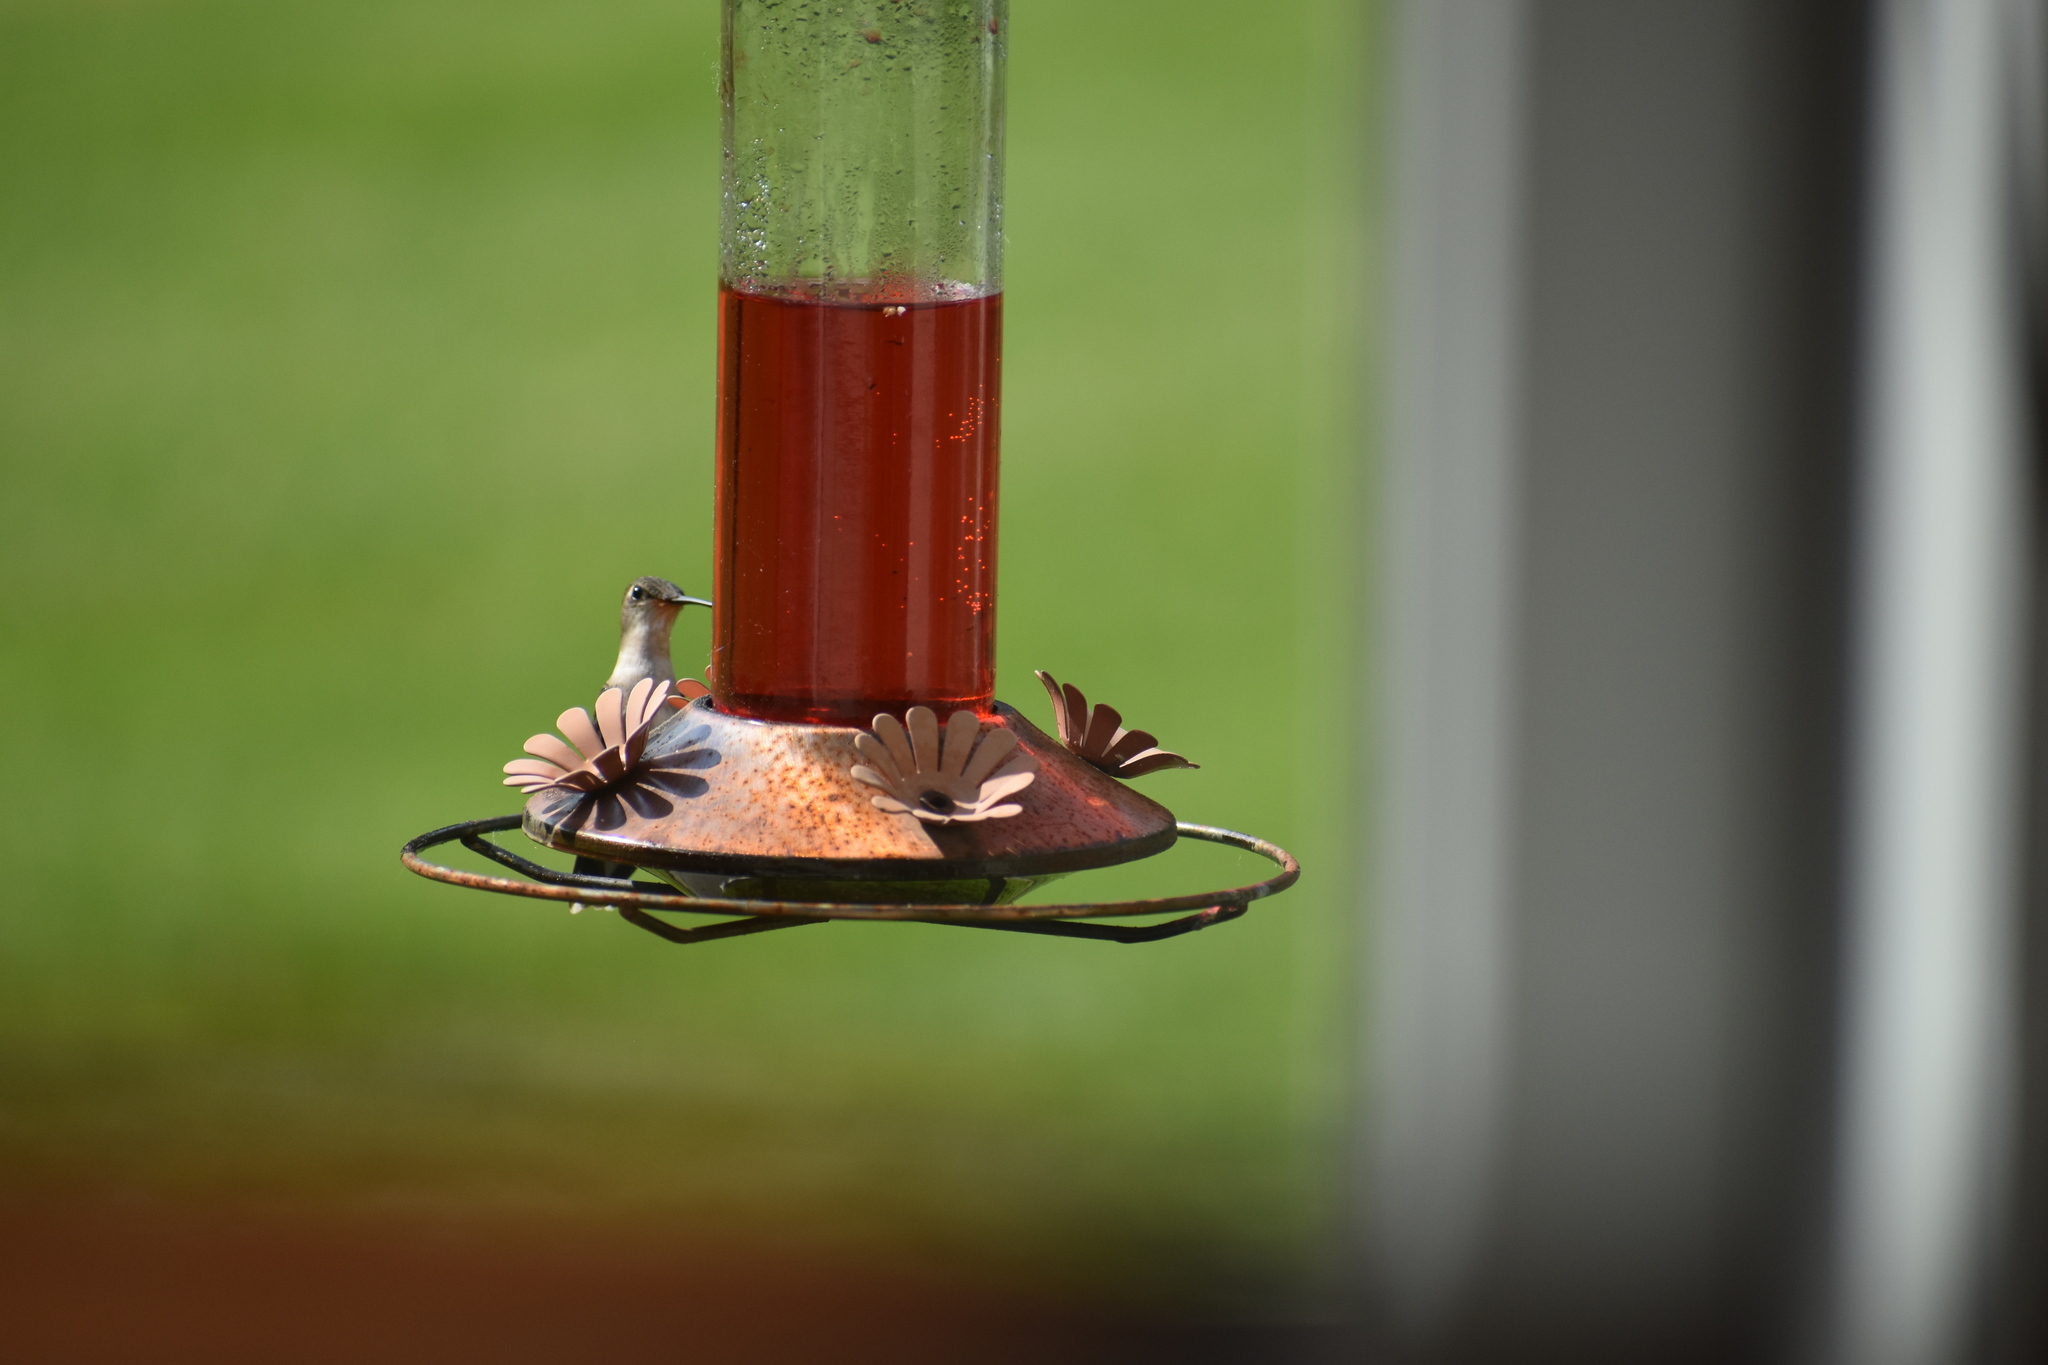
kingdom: Animalia
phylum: Chordata
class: Aves
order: Apodiformes
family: Trochilidae
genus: Archilochus
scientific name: Archilochus colubris
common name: Ruby-throated hummingbird
